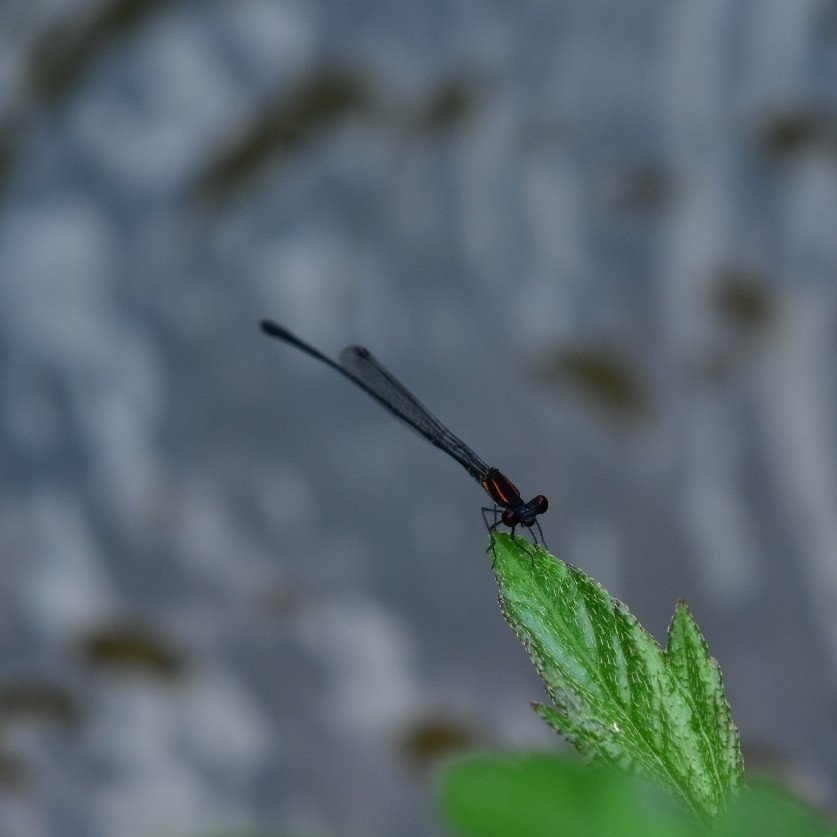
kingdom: Animalia
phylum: Arthropoda
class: Insecta
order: Odonata
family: Platycnemididae
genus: Prodasineura
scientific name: Prodasineura verticalis
